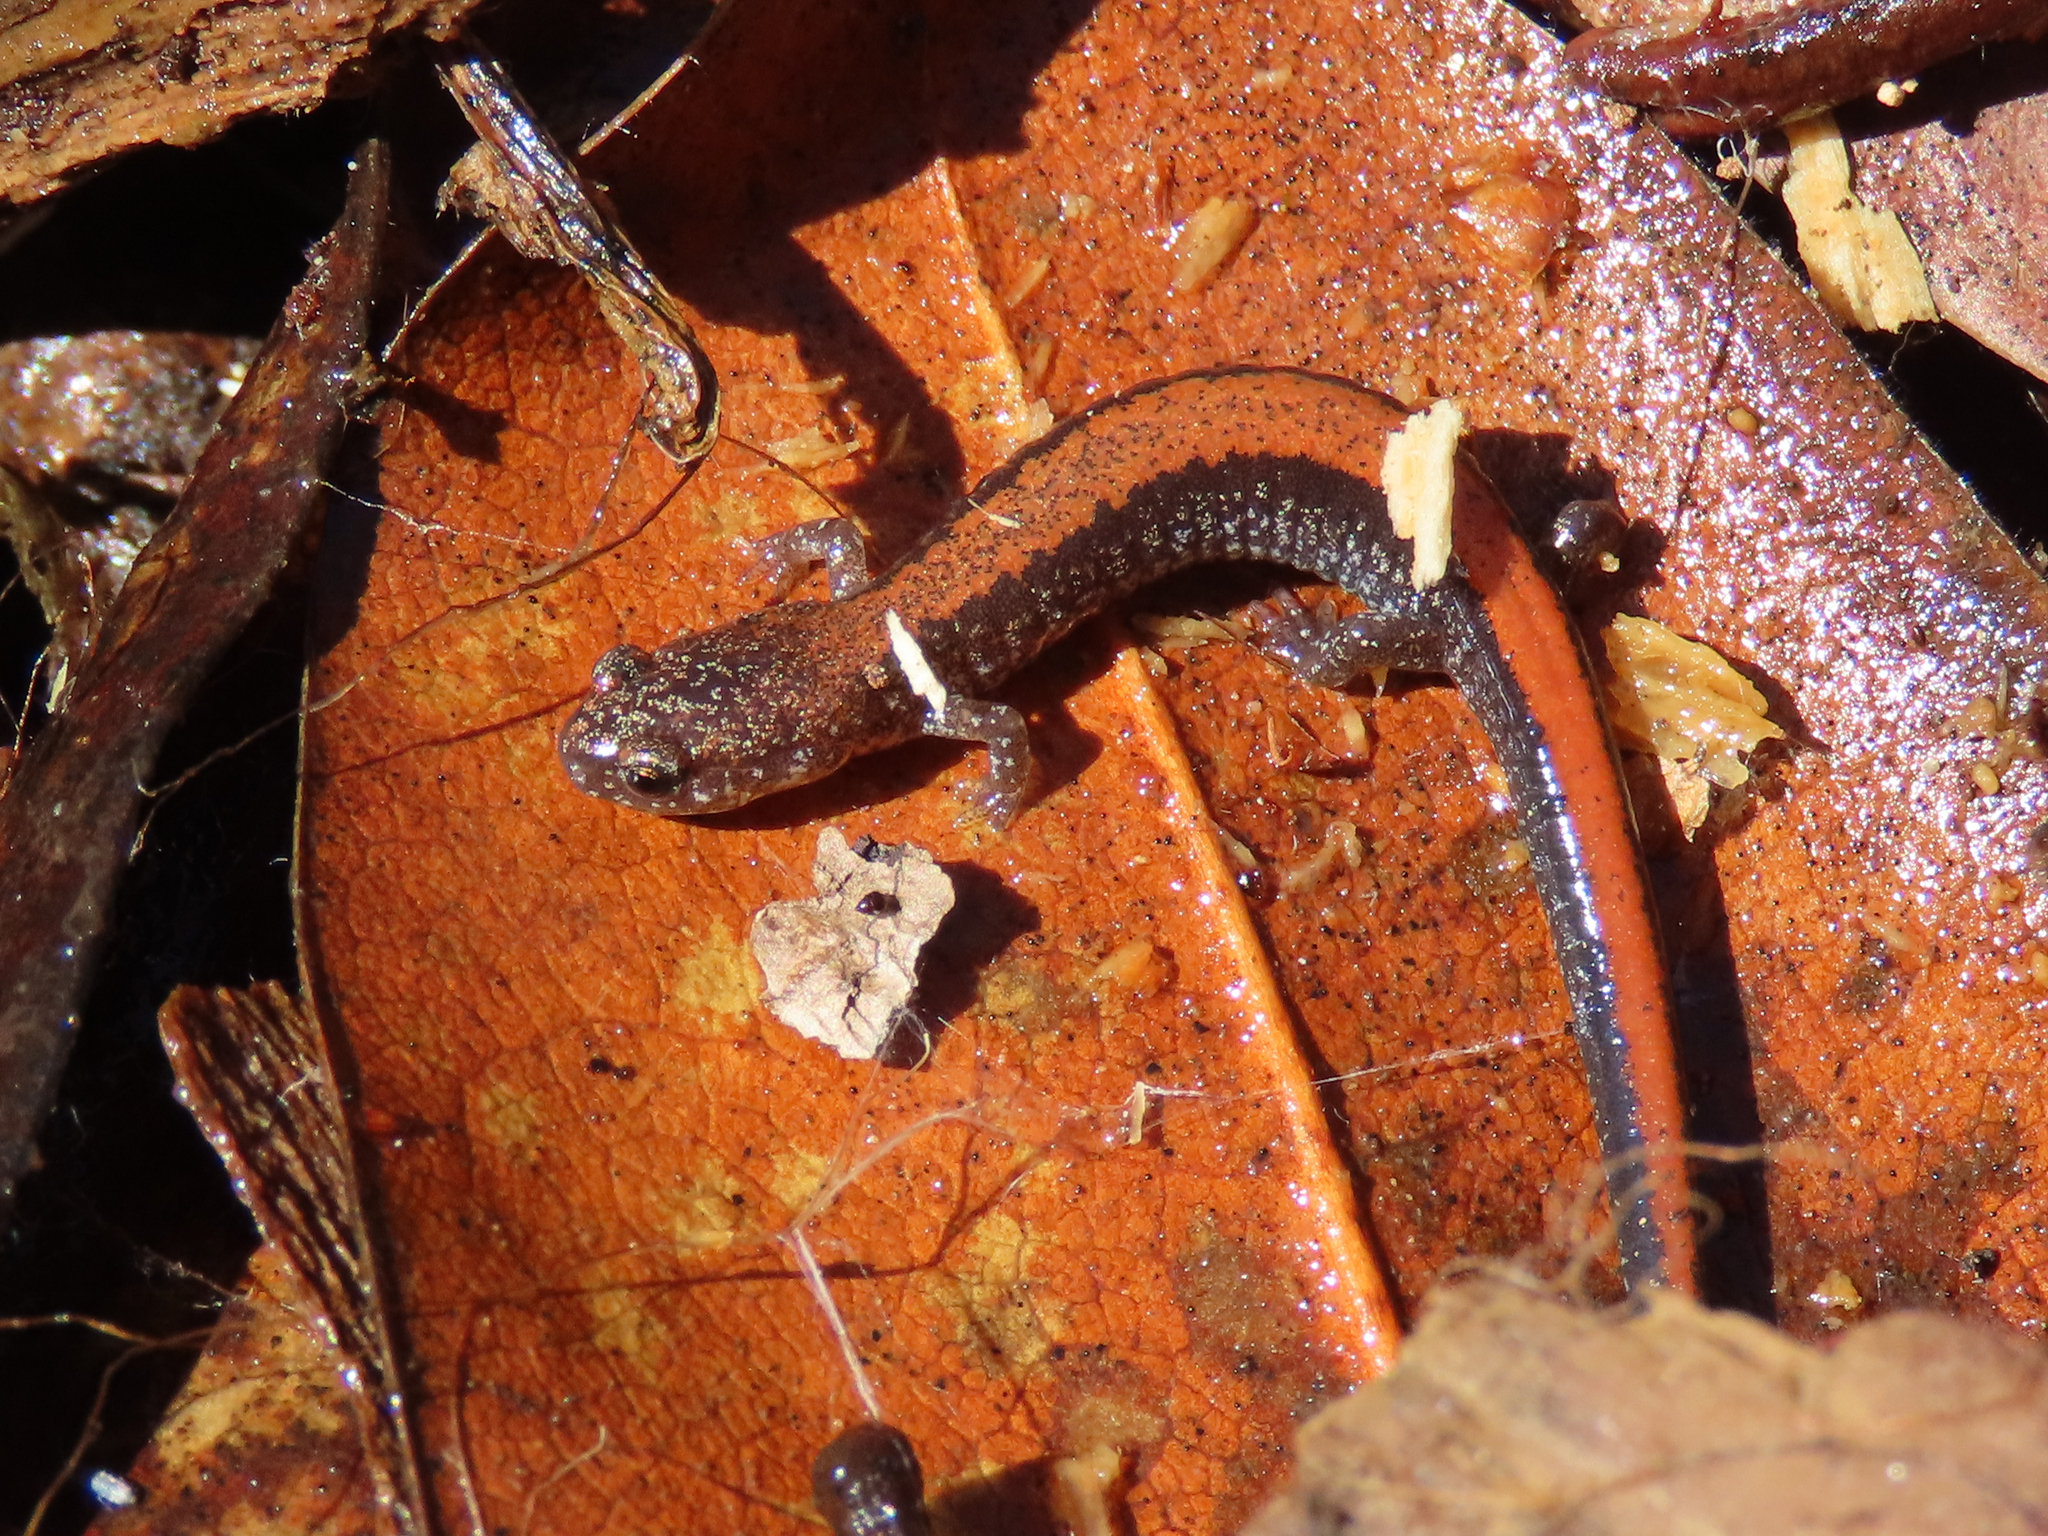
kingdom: Animalia
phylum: Chordata
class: Amphibia
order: Caudata
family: Plethodontidae
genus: Plethodon
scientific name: Plethodon cinereus
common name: Redback salamander
